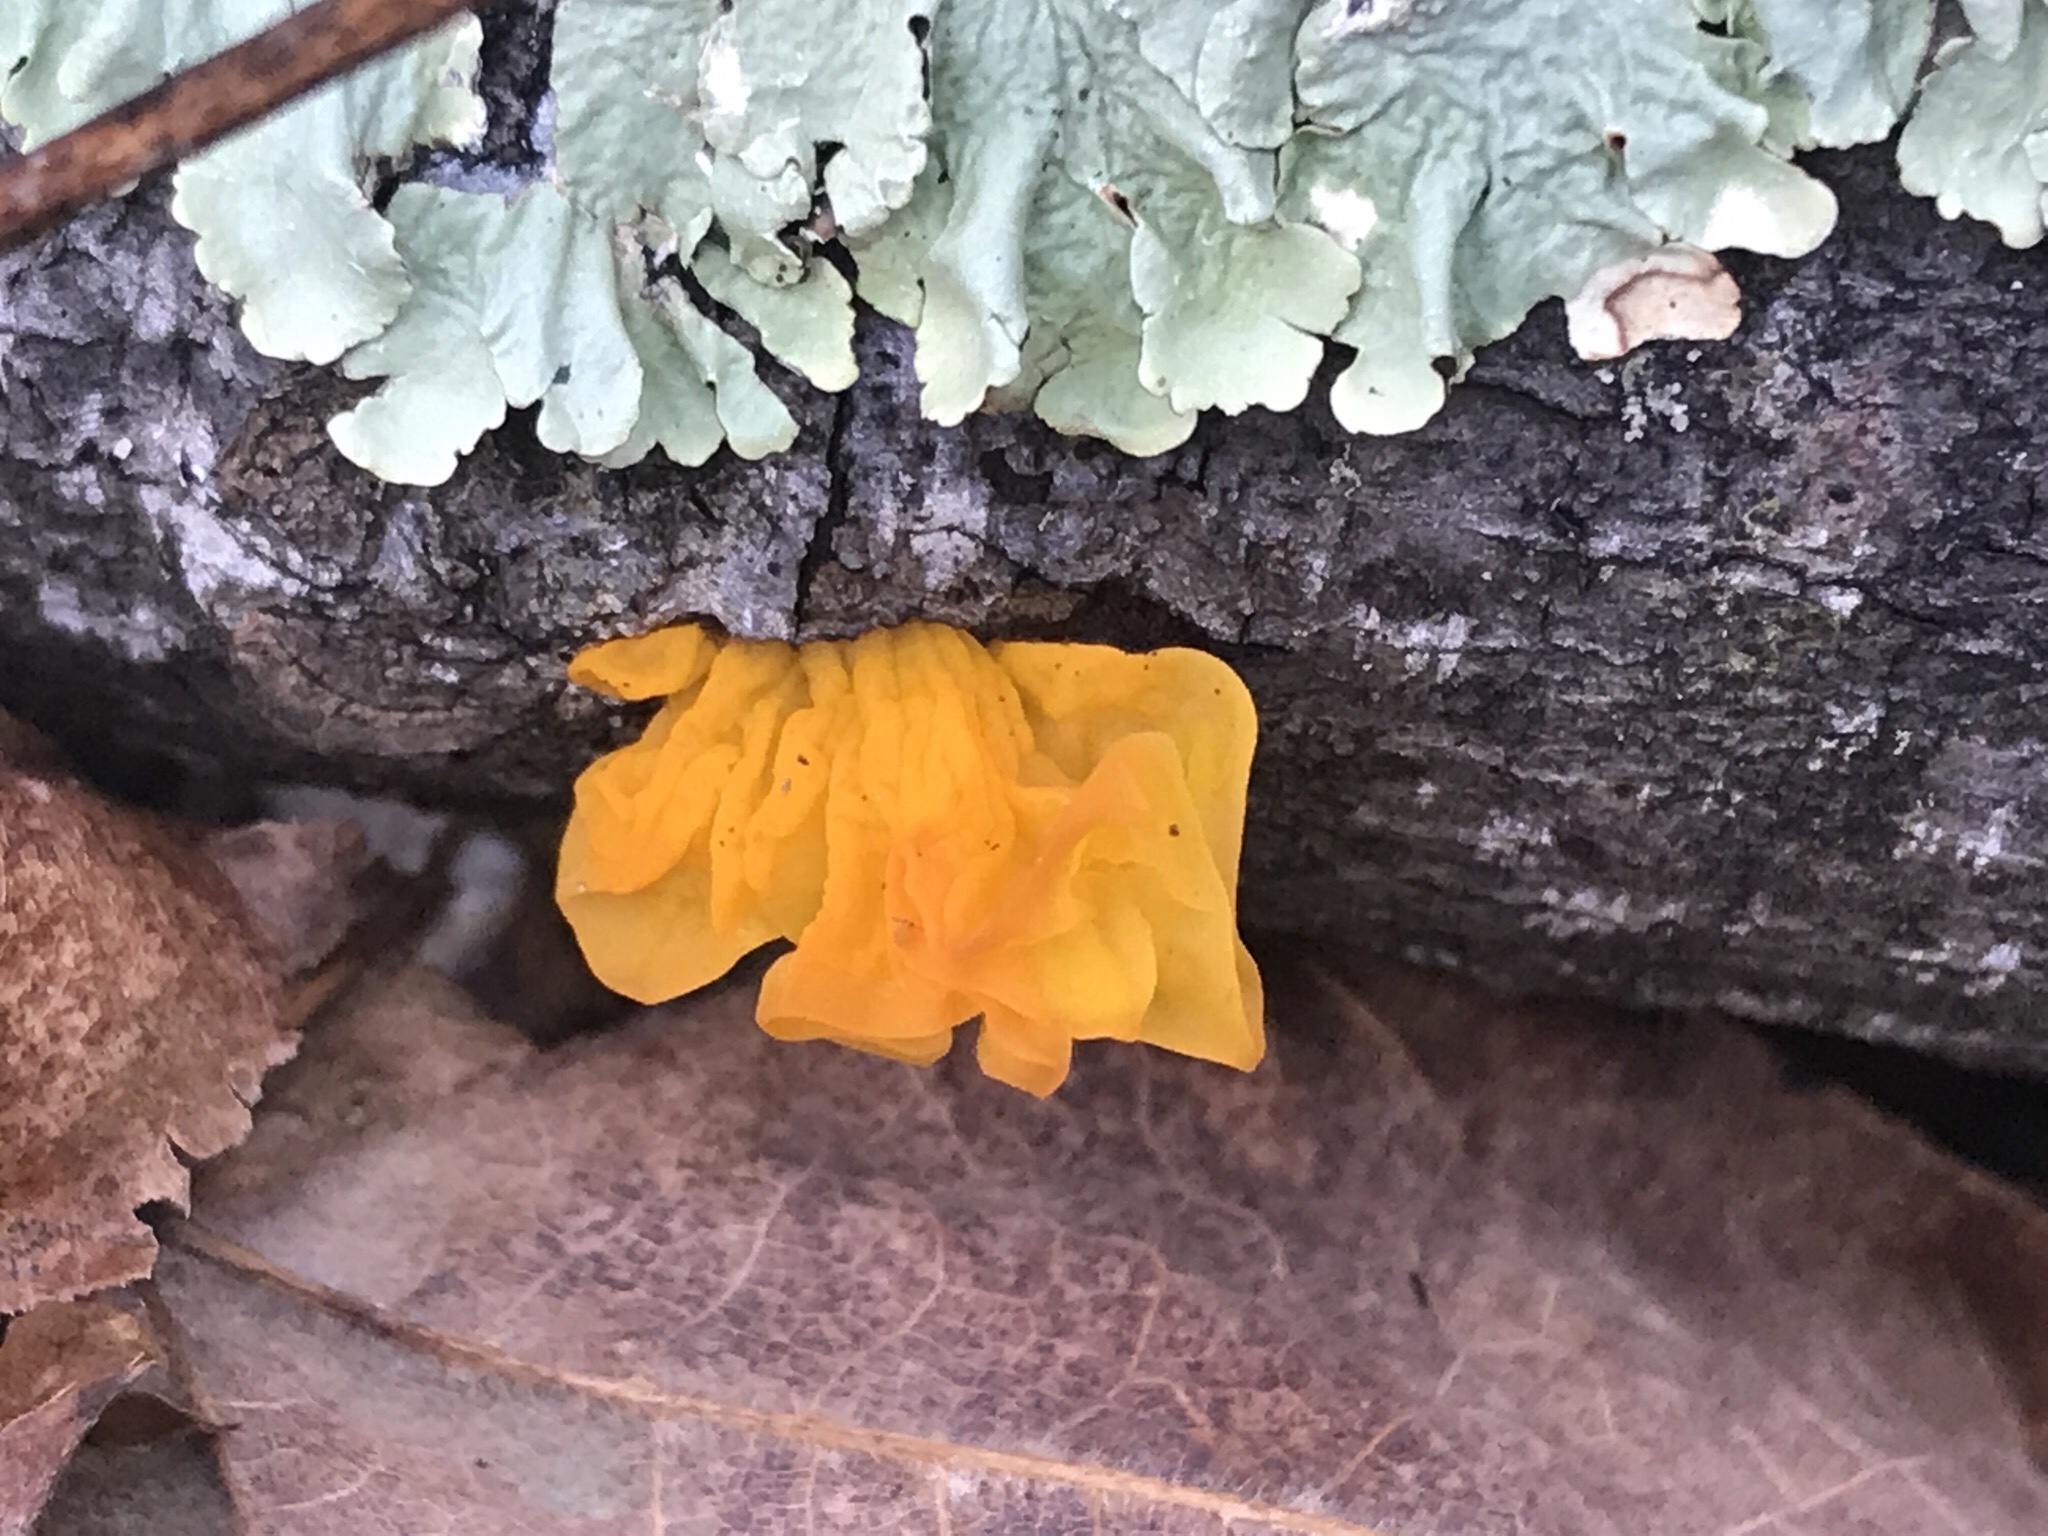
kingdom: Fungi
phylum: Basidiomycota
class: Dacrymycetes
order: Dacrymycetales
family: Dacrymycetaceae
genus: Dacrymyces
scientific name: Dacrymyces chrysospermus
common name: Orange jelly spot
